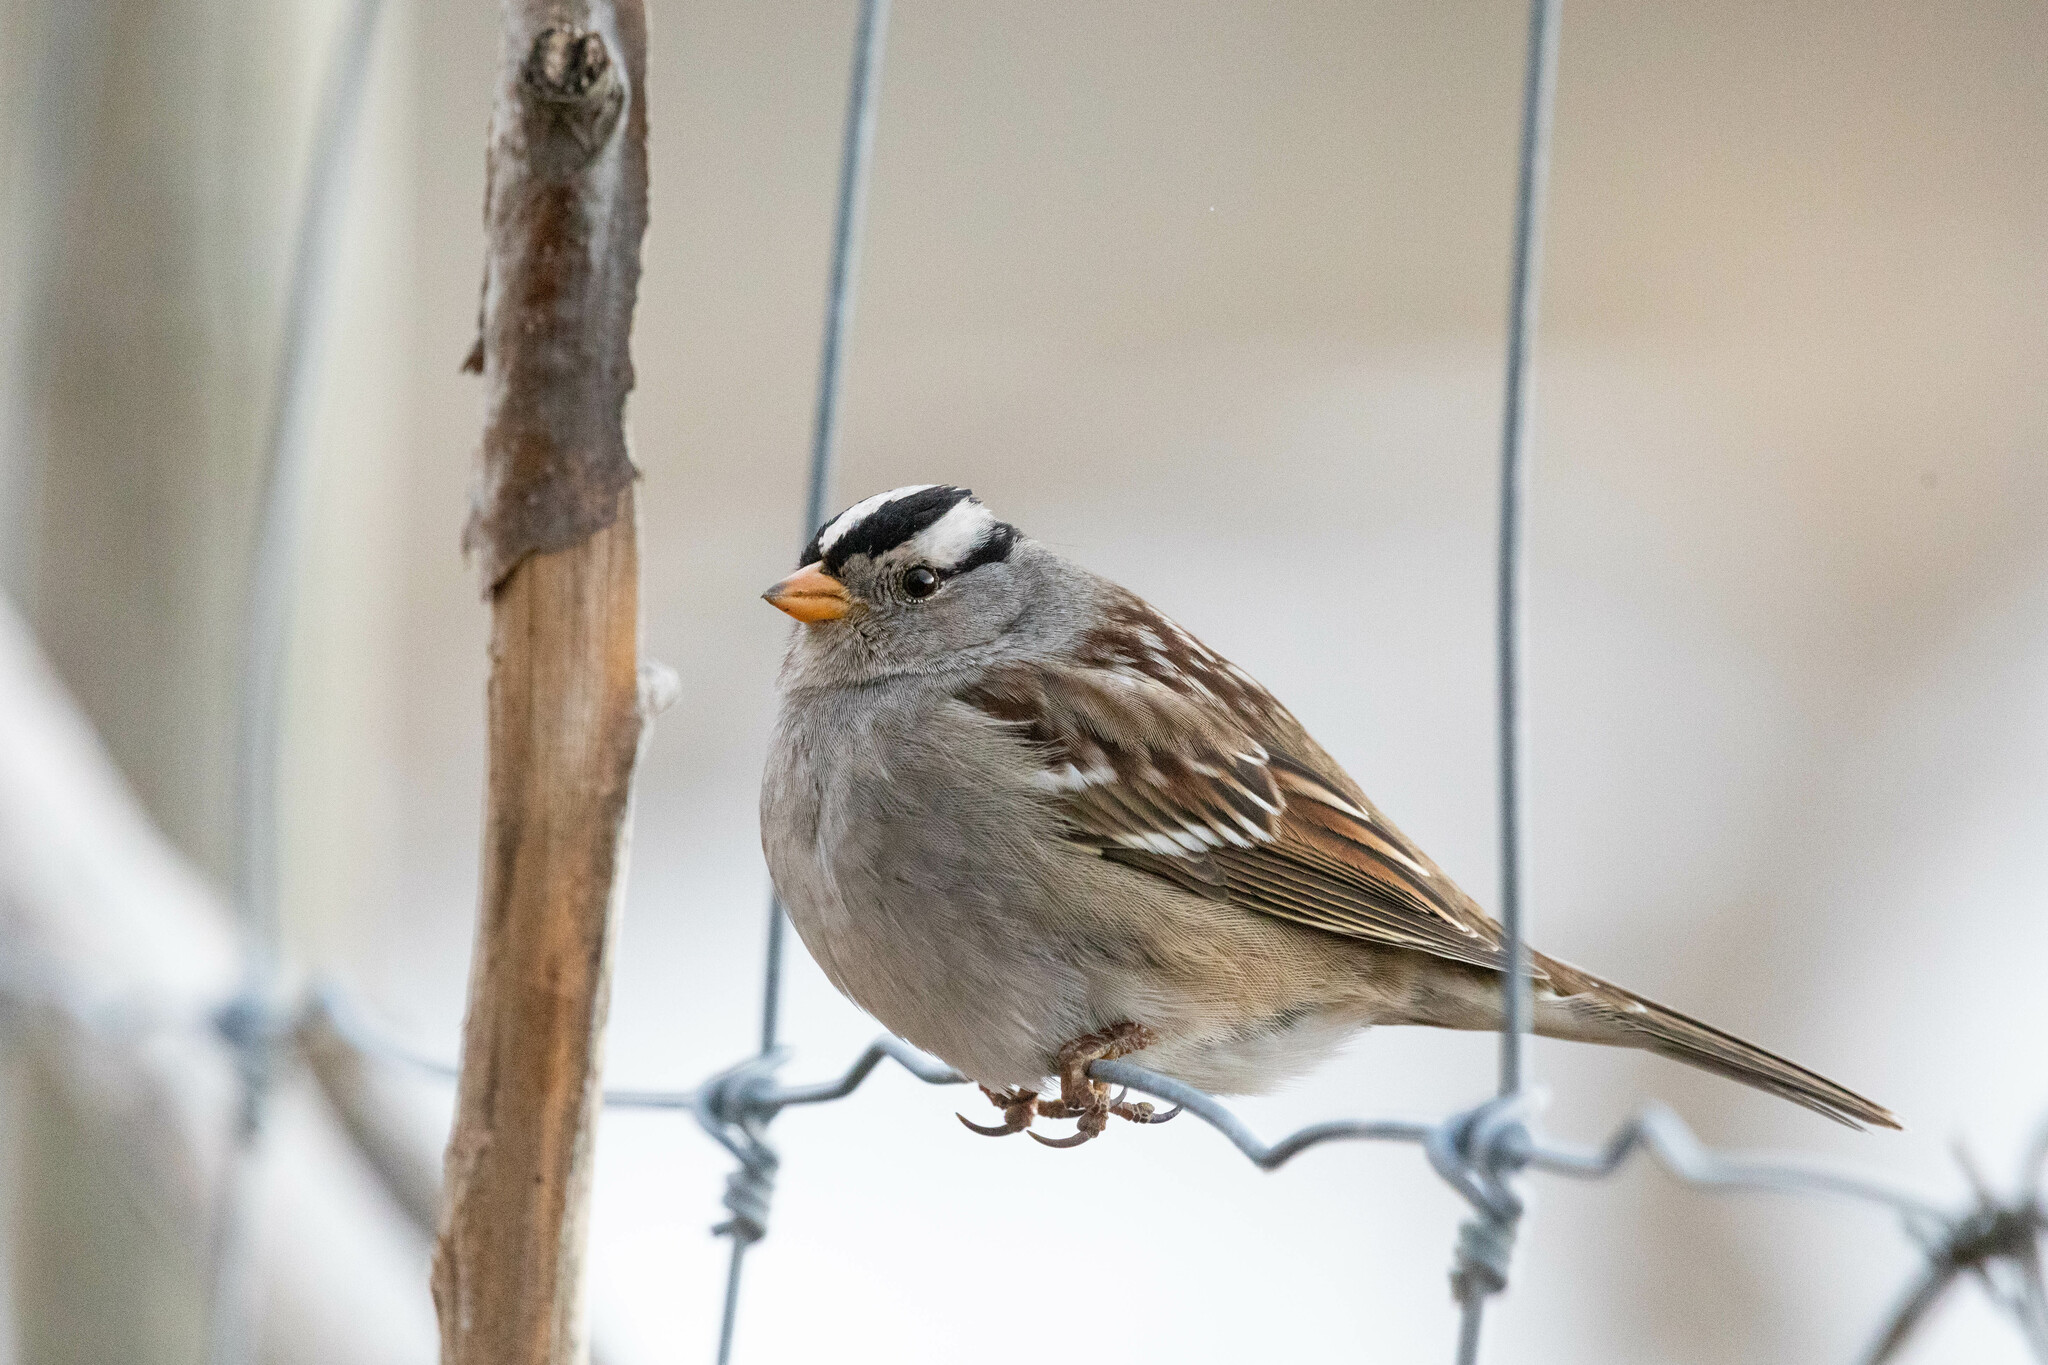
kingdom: Animalia
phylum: Chordata
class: Aves
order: Passeriformes
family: Passerellidae
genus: Zonotrichia
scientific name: Zonotrichia leucophrys
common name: White-crowned sparrow
